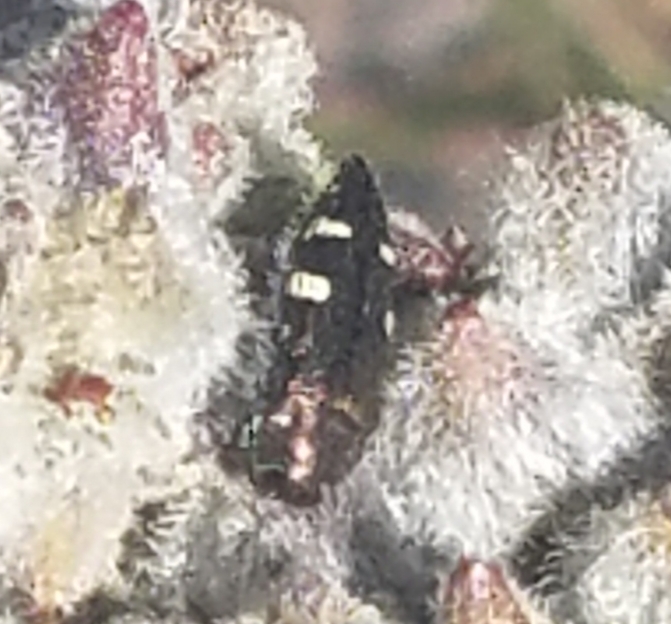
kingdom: Animalia
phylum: Arthropoda
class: Insecta
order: Coleoptera
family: Buprestidae
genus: Acmaeodera
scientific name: Acmaeodera prorsa
